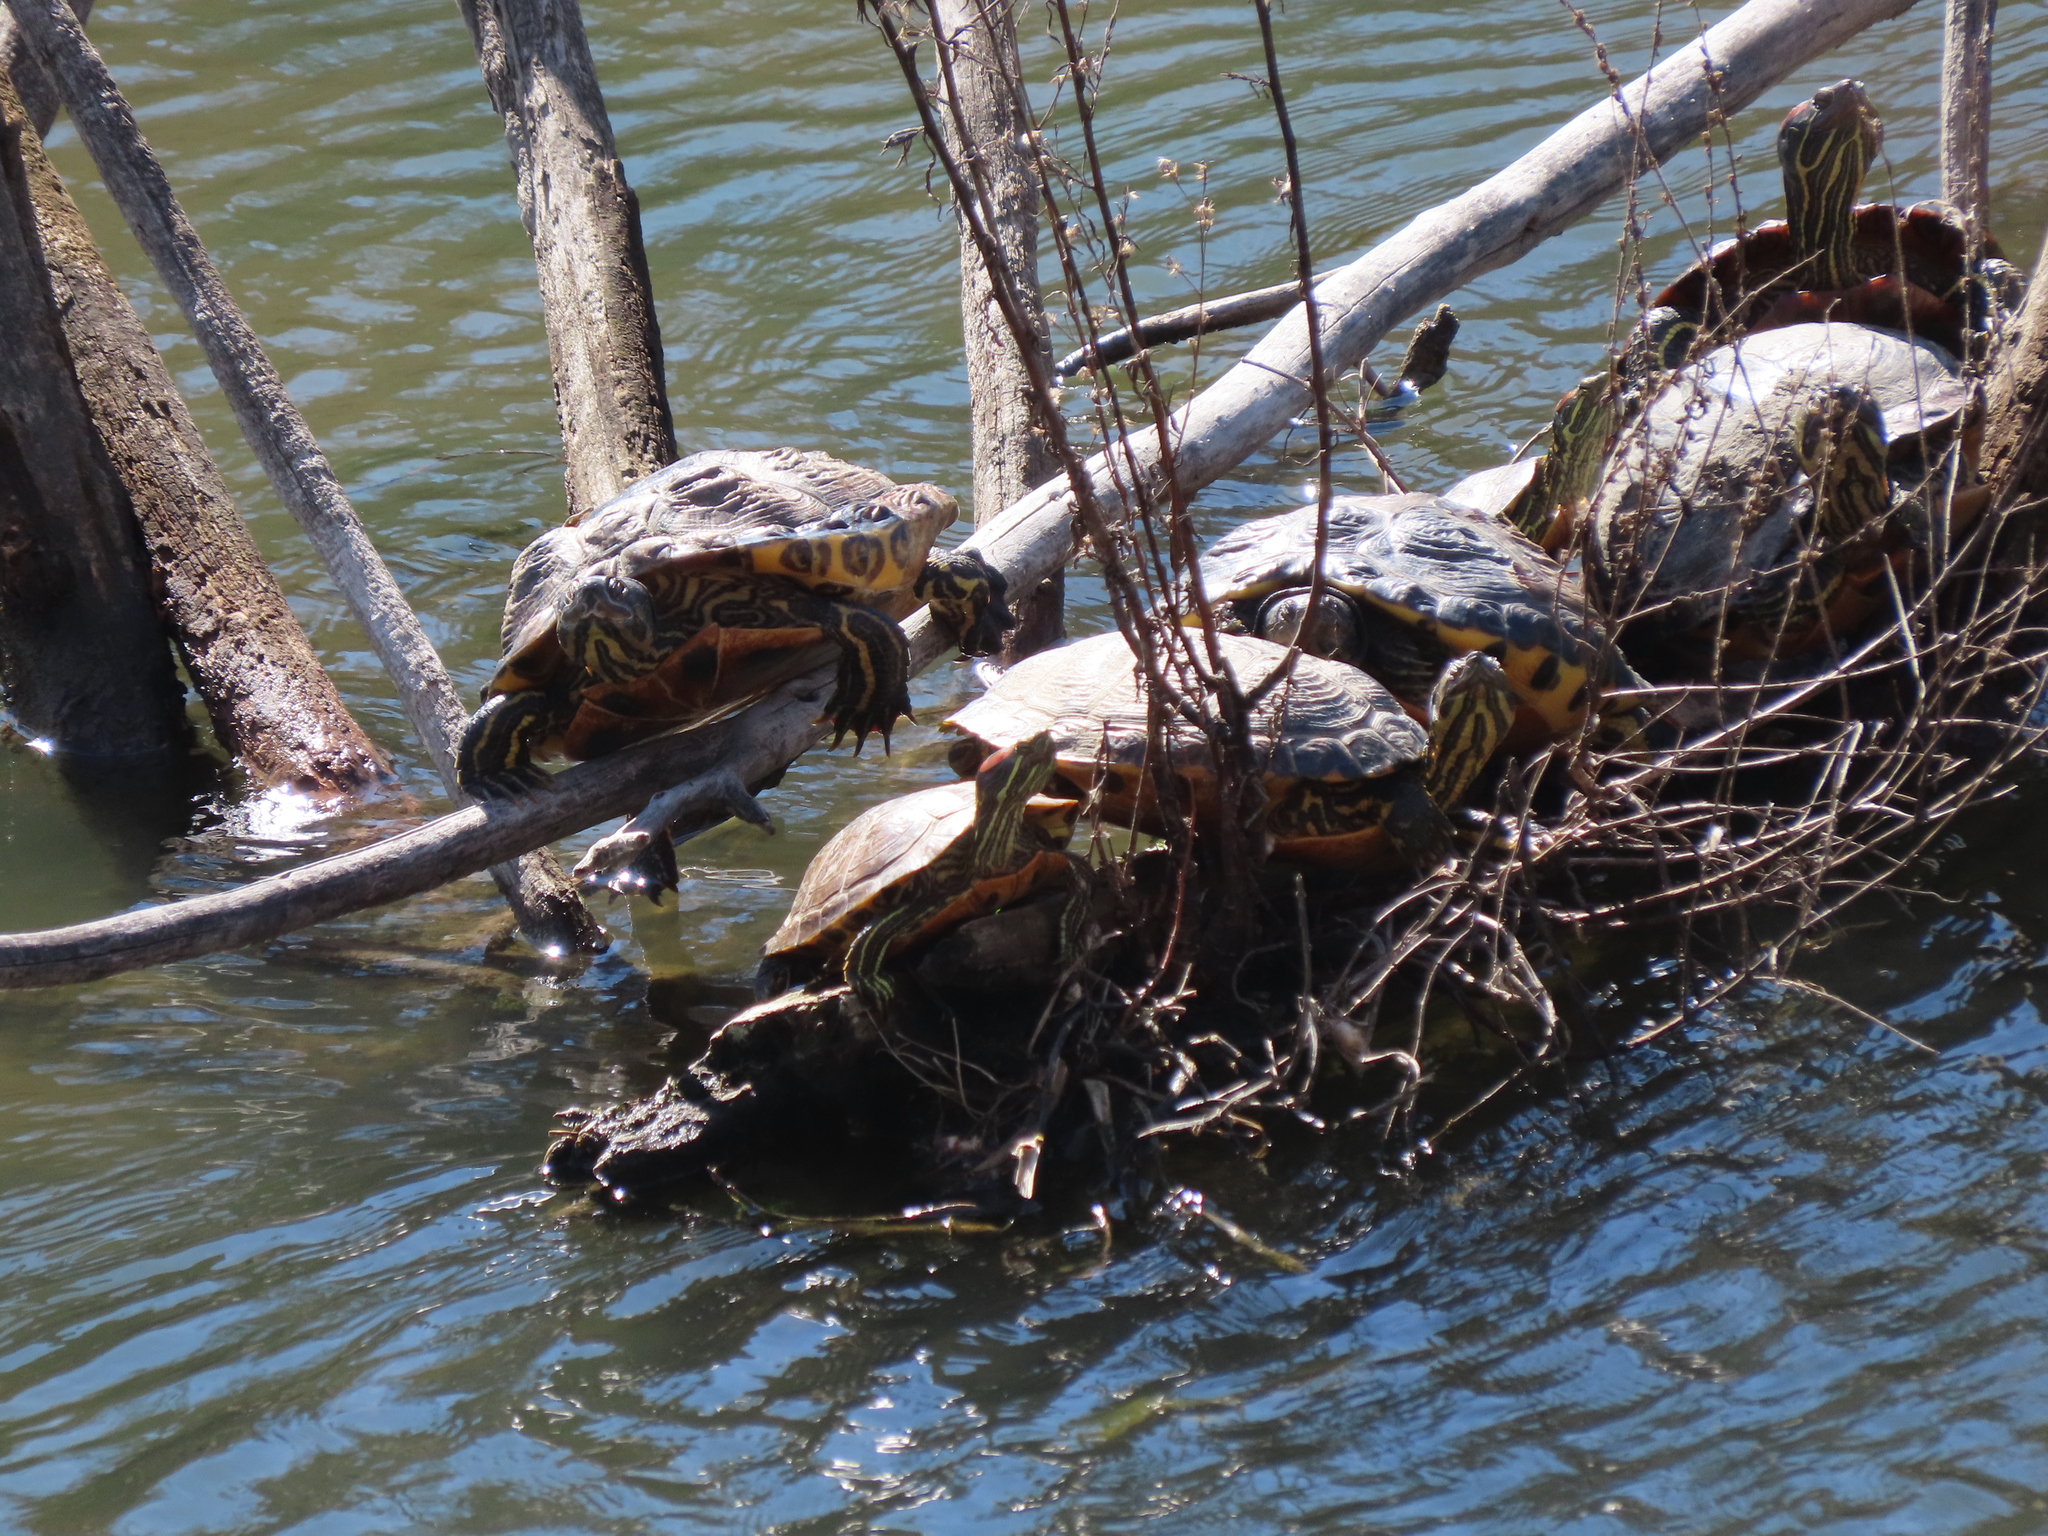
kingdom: Animalia
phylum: Chordata
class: Testudines
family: Emydidae
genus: Trachemys
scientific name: Trachemys scripta
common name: Slider
